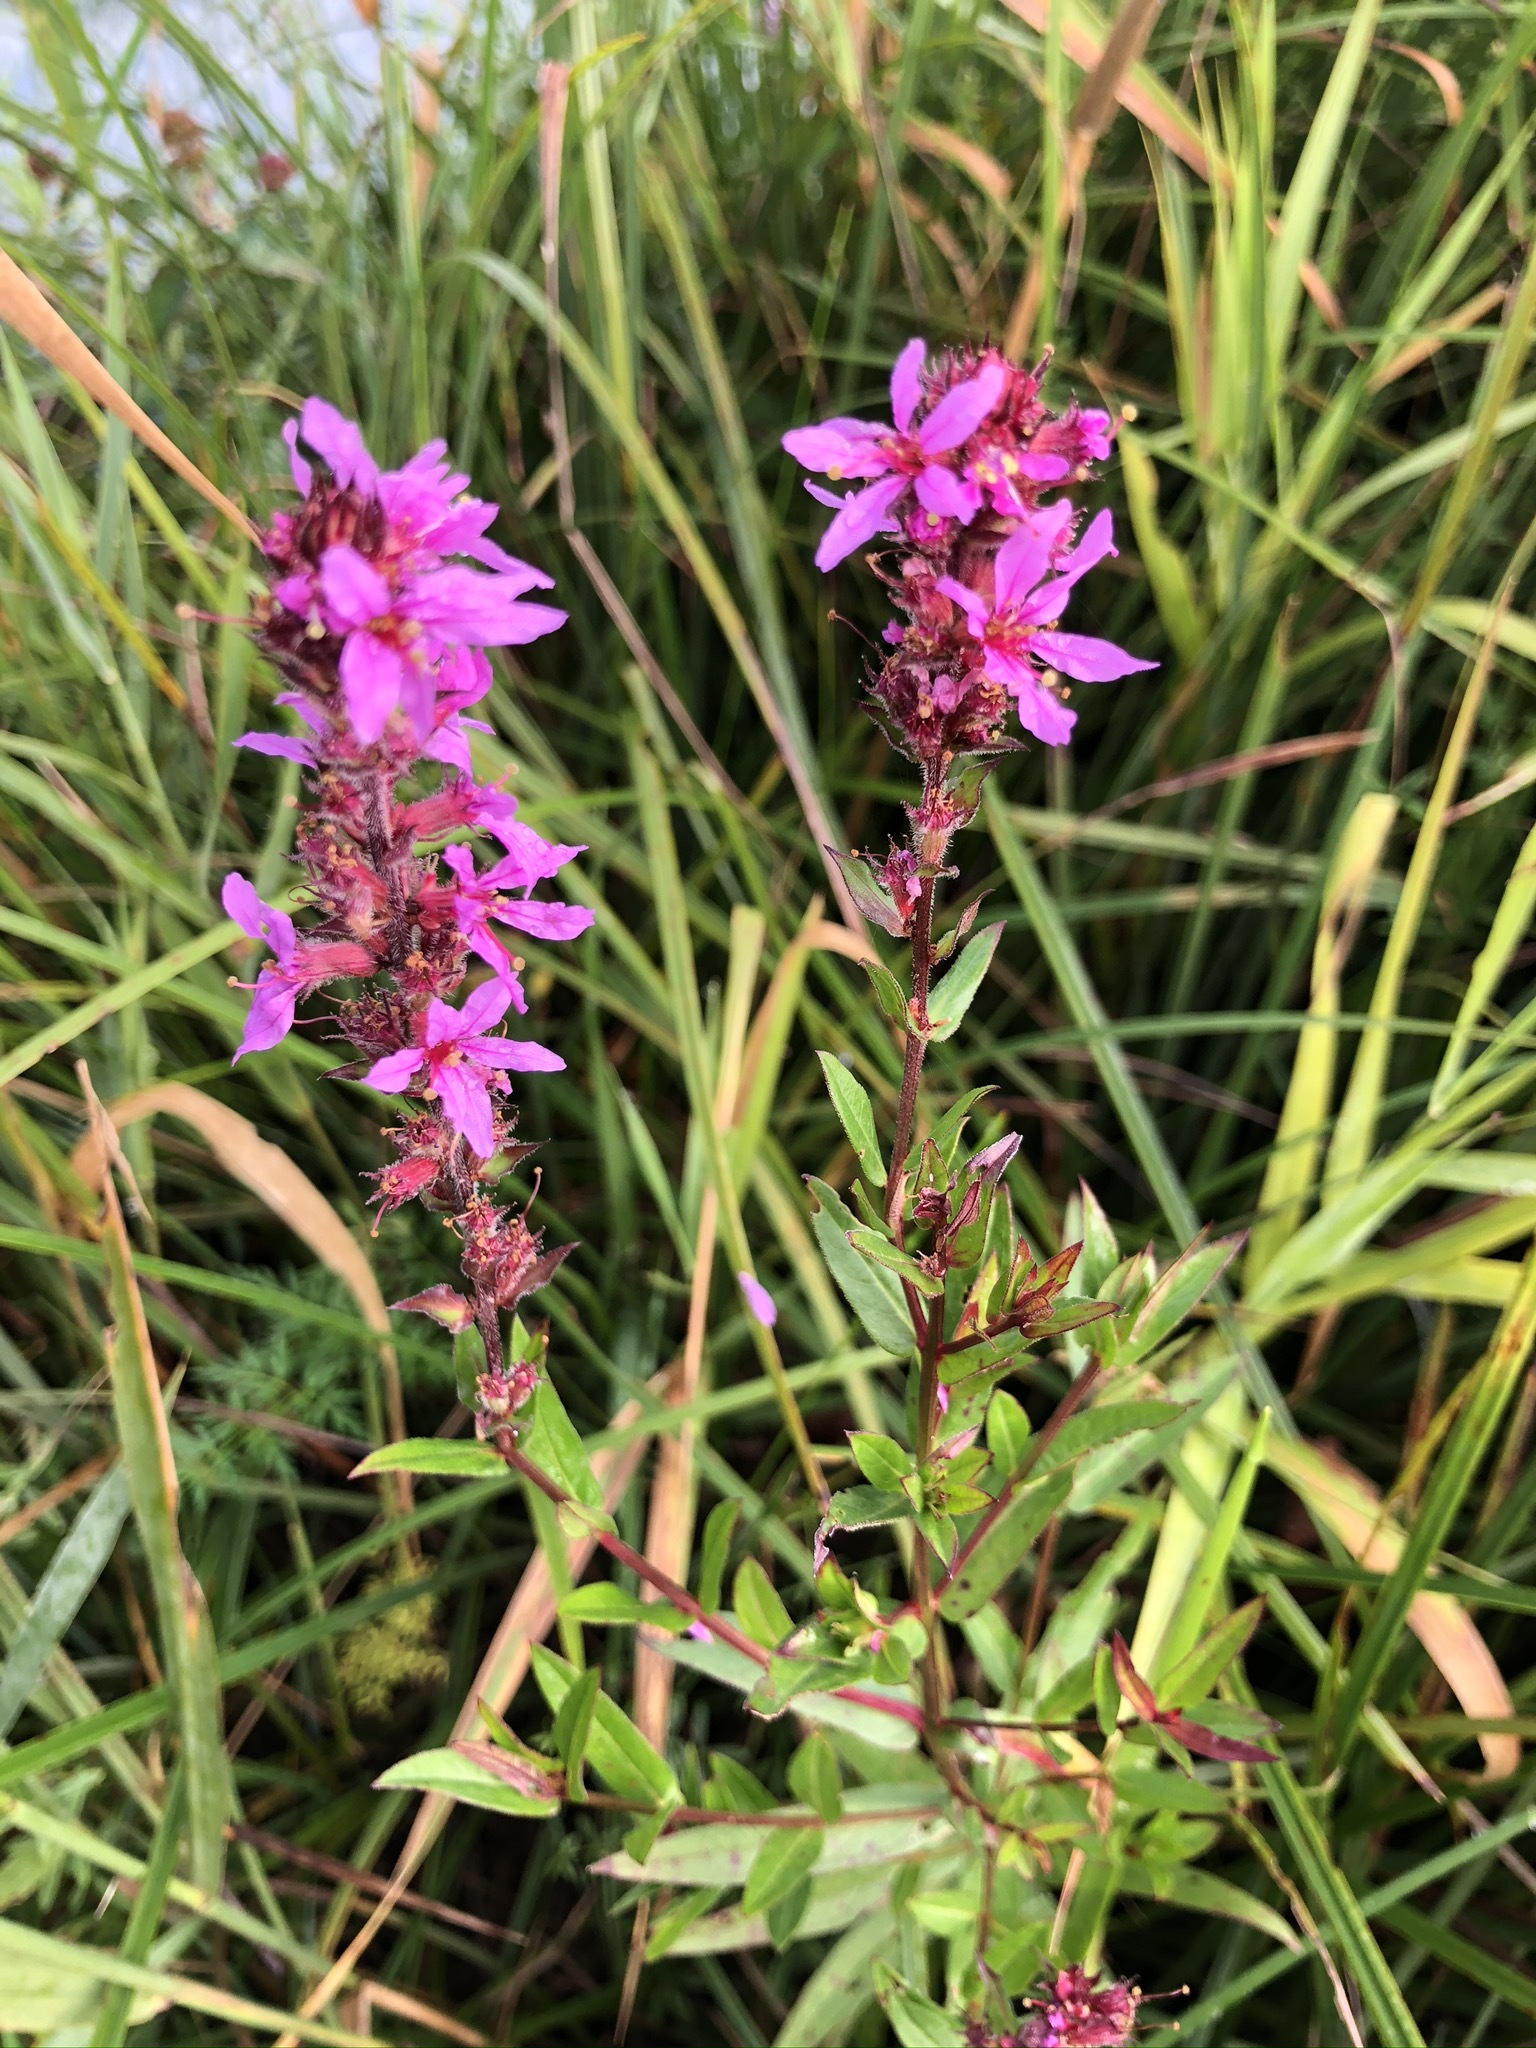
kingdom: Plantae
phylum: Tracheophyta
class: Magnoliopsida
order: Myrtales
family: Lythraceae
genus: Lythrum
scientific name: Lythrum salicaria
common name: Purple loosestrife
